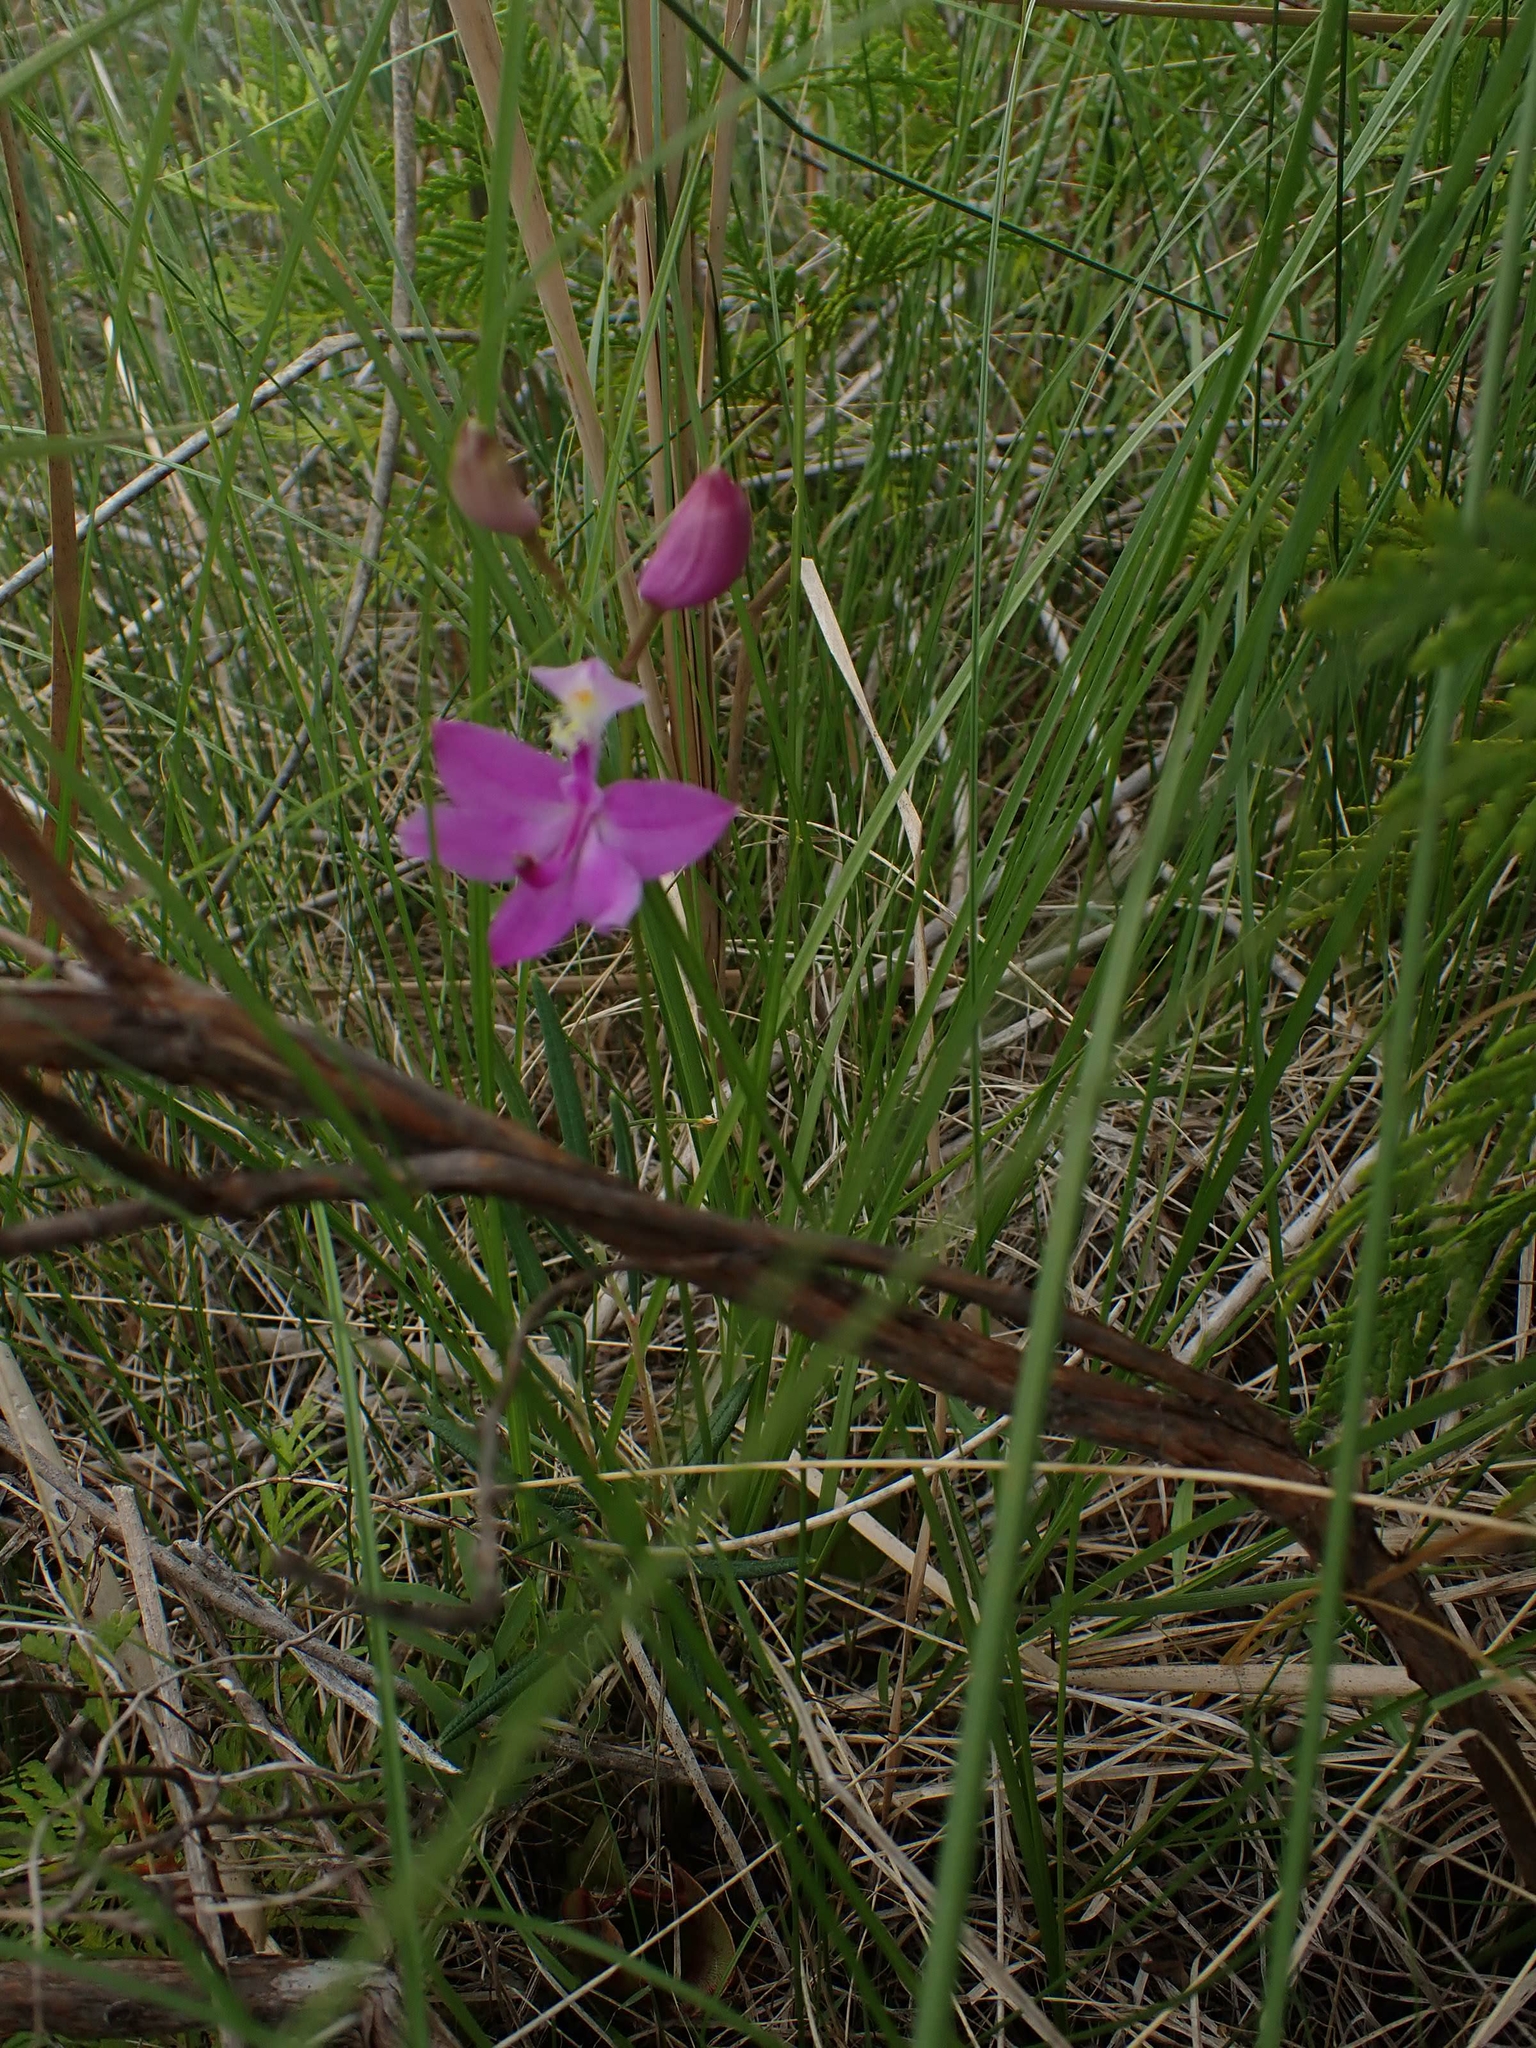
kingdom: Plantae
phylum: Tracheophyta
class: Liliopsida
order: Asparagales
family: Orchidaceae
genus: Calopogon
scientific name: Calopogon tuberosus
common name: Grass-pink
